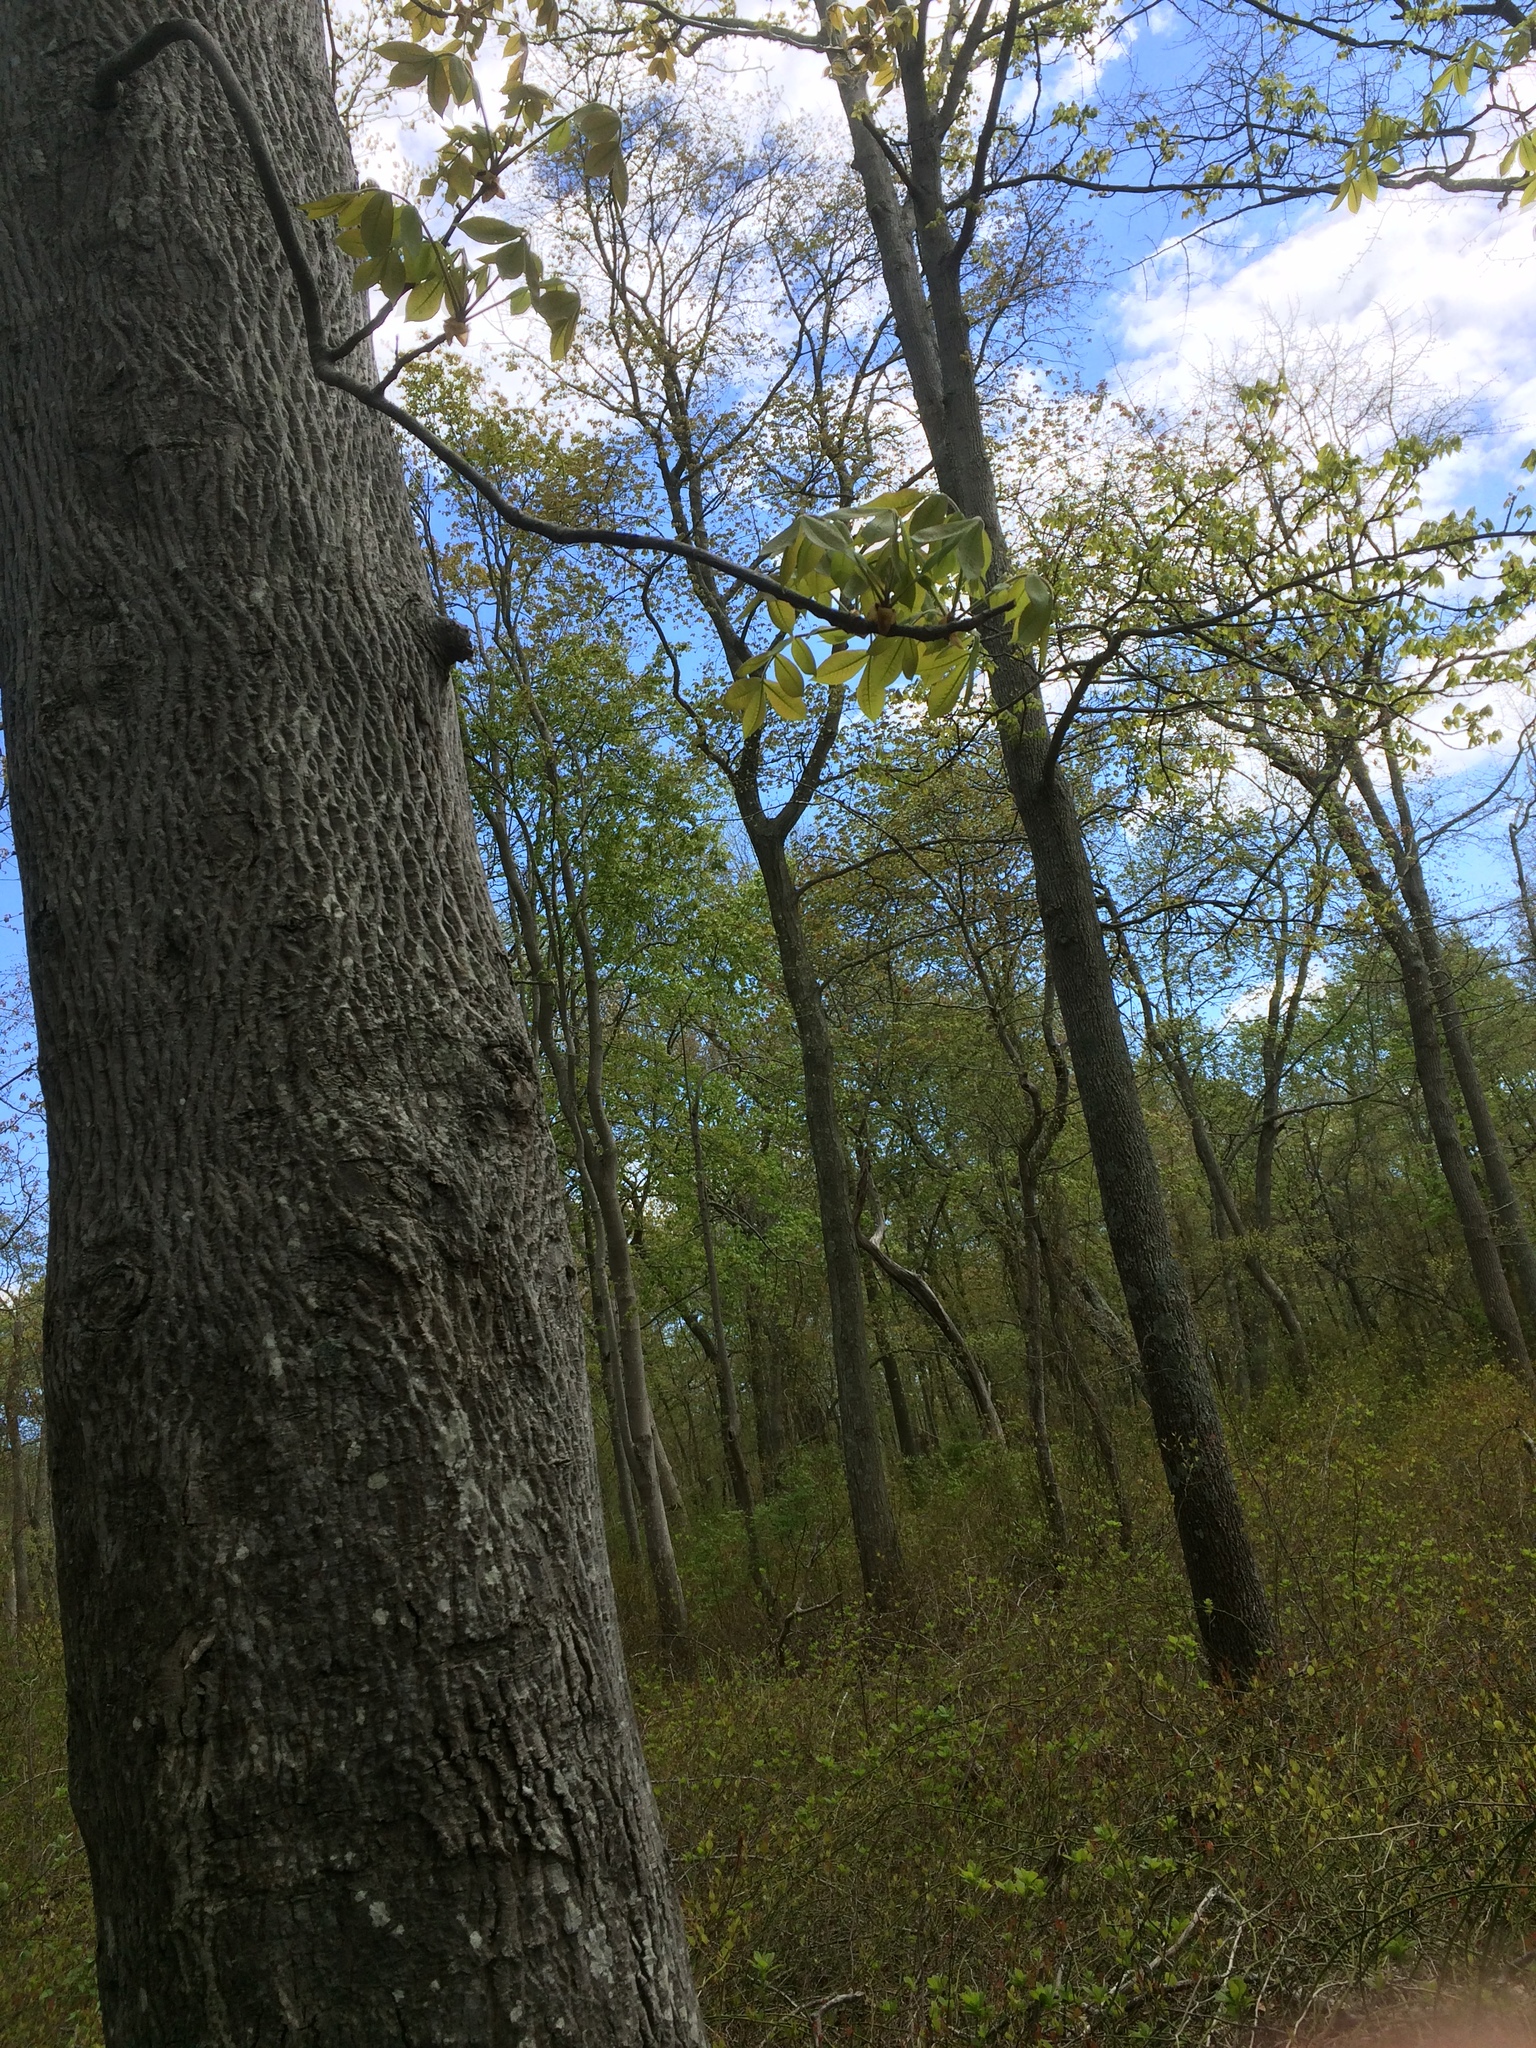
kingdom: Plantae
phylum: Tracheophyta
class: Magnoliopsida
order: Fagales
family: Juglandaceae
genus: Carya
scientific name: Carya alba
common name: Mockernut hickory
